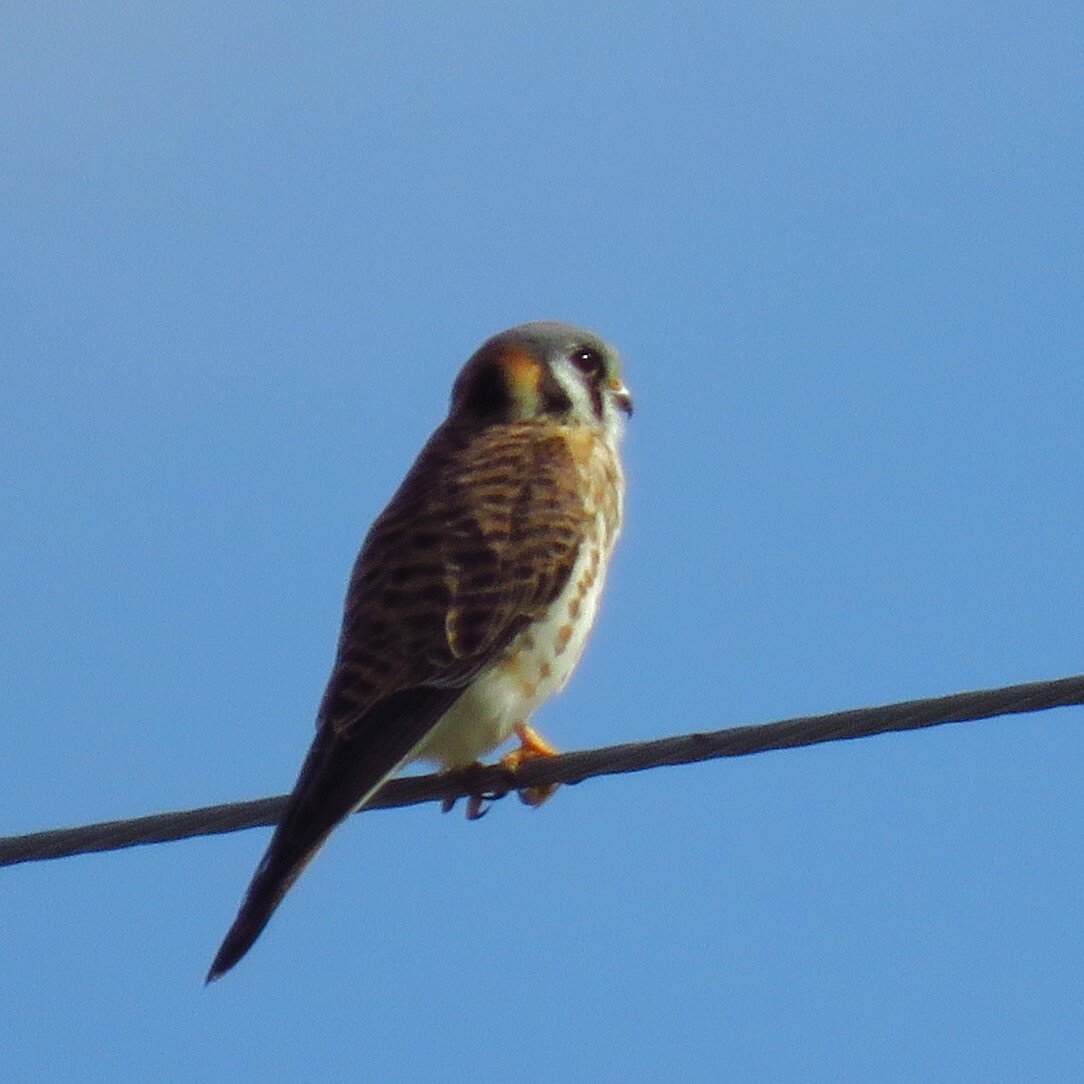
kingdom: Animalia
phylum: Chordata
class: Aves
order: Falconiformes
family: Falconidae
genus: Falco
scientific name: Falco sparverius
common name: American kestrel
